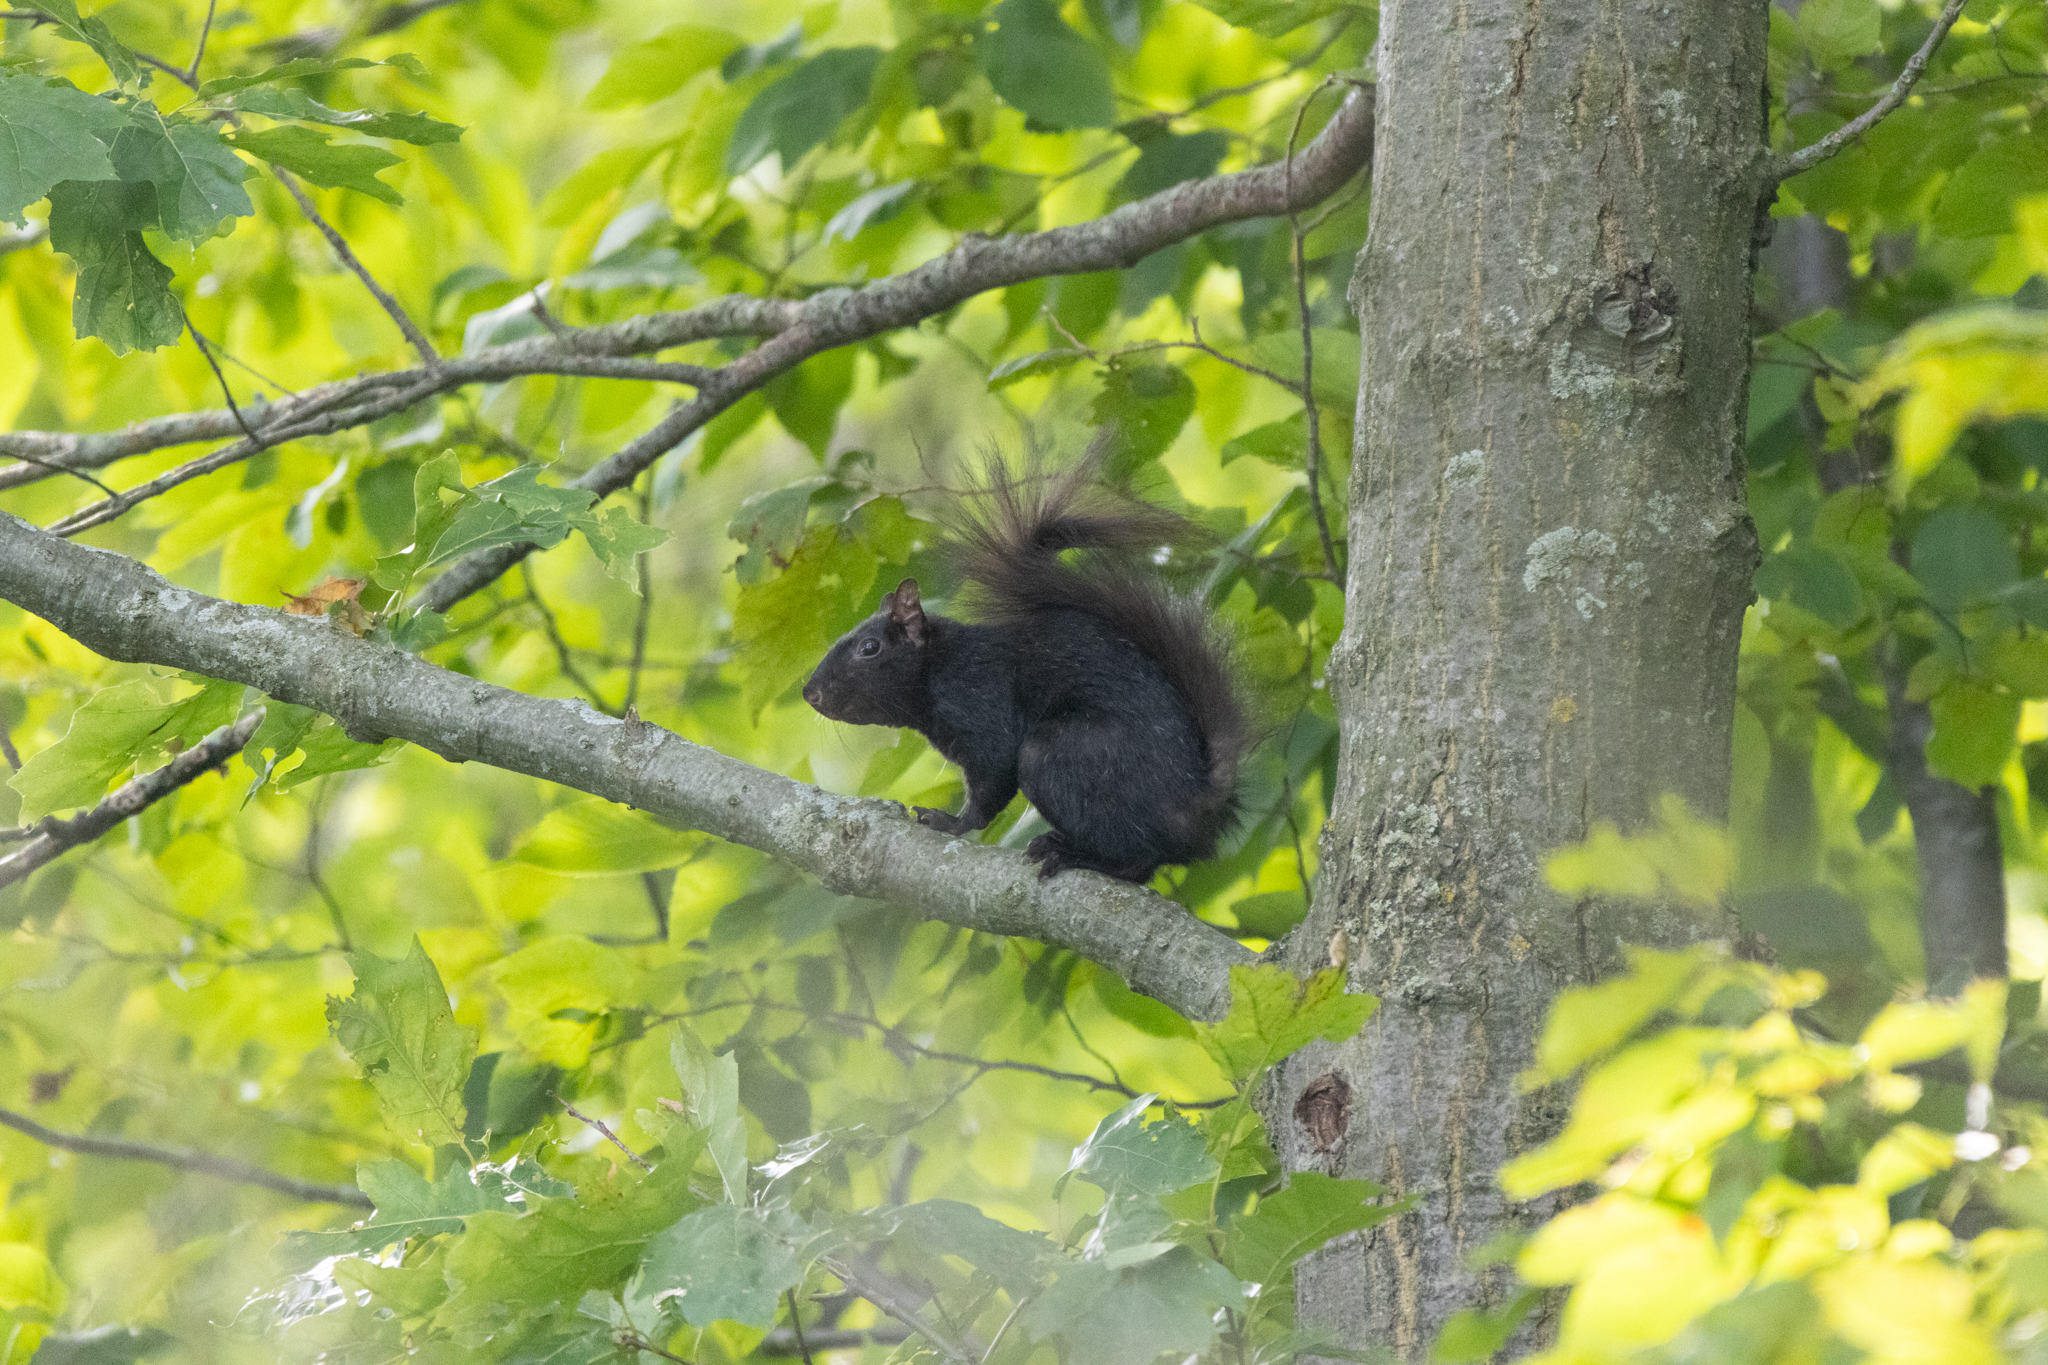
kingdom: Animalia
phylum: Chordata
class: Mammalia
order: Rodentia
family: Sciuridae
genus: Sciurus
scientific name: Sciurus carolinensis
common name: Eastern gray squirrel
